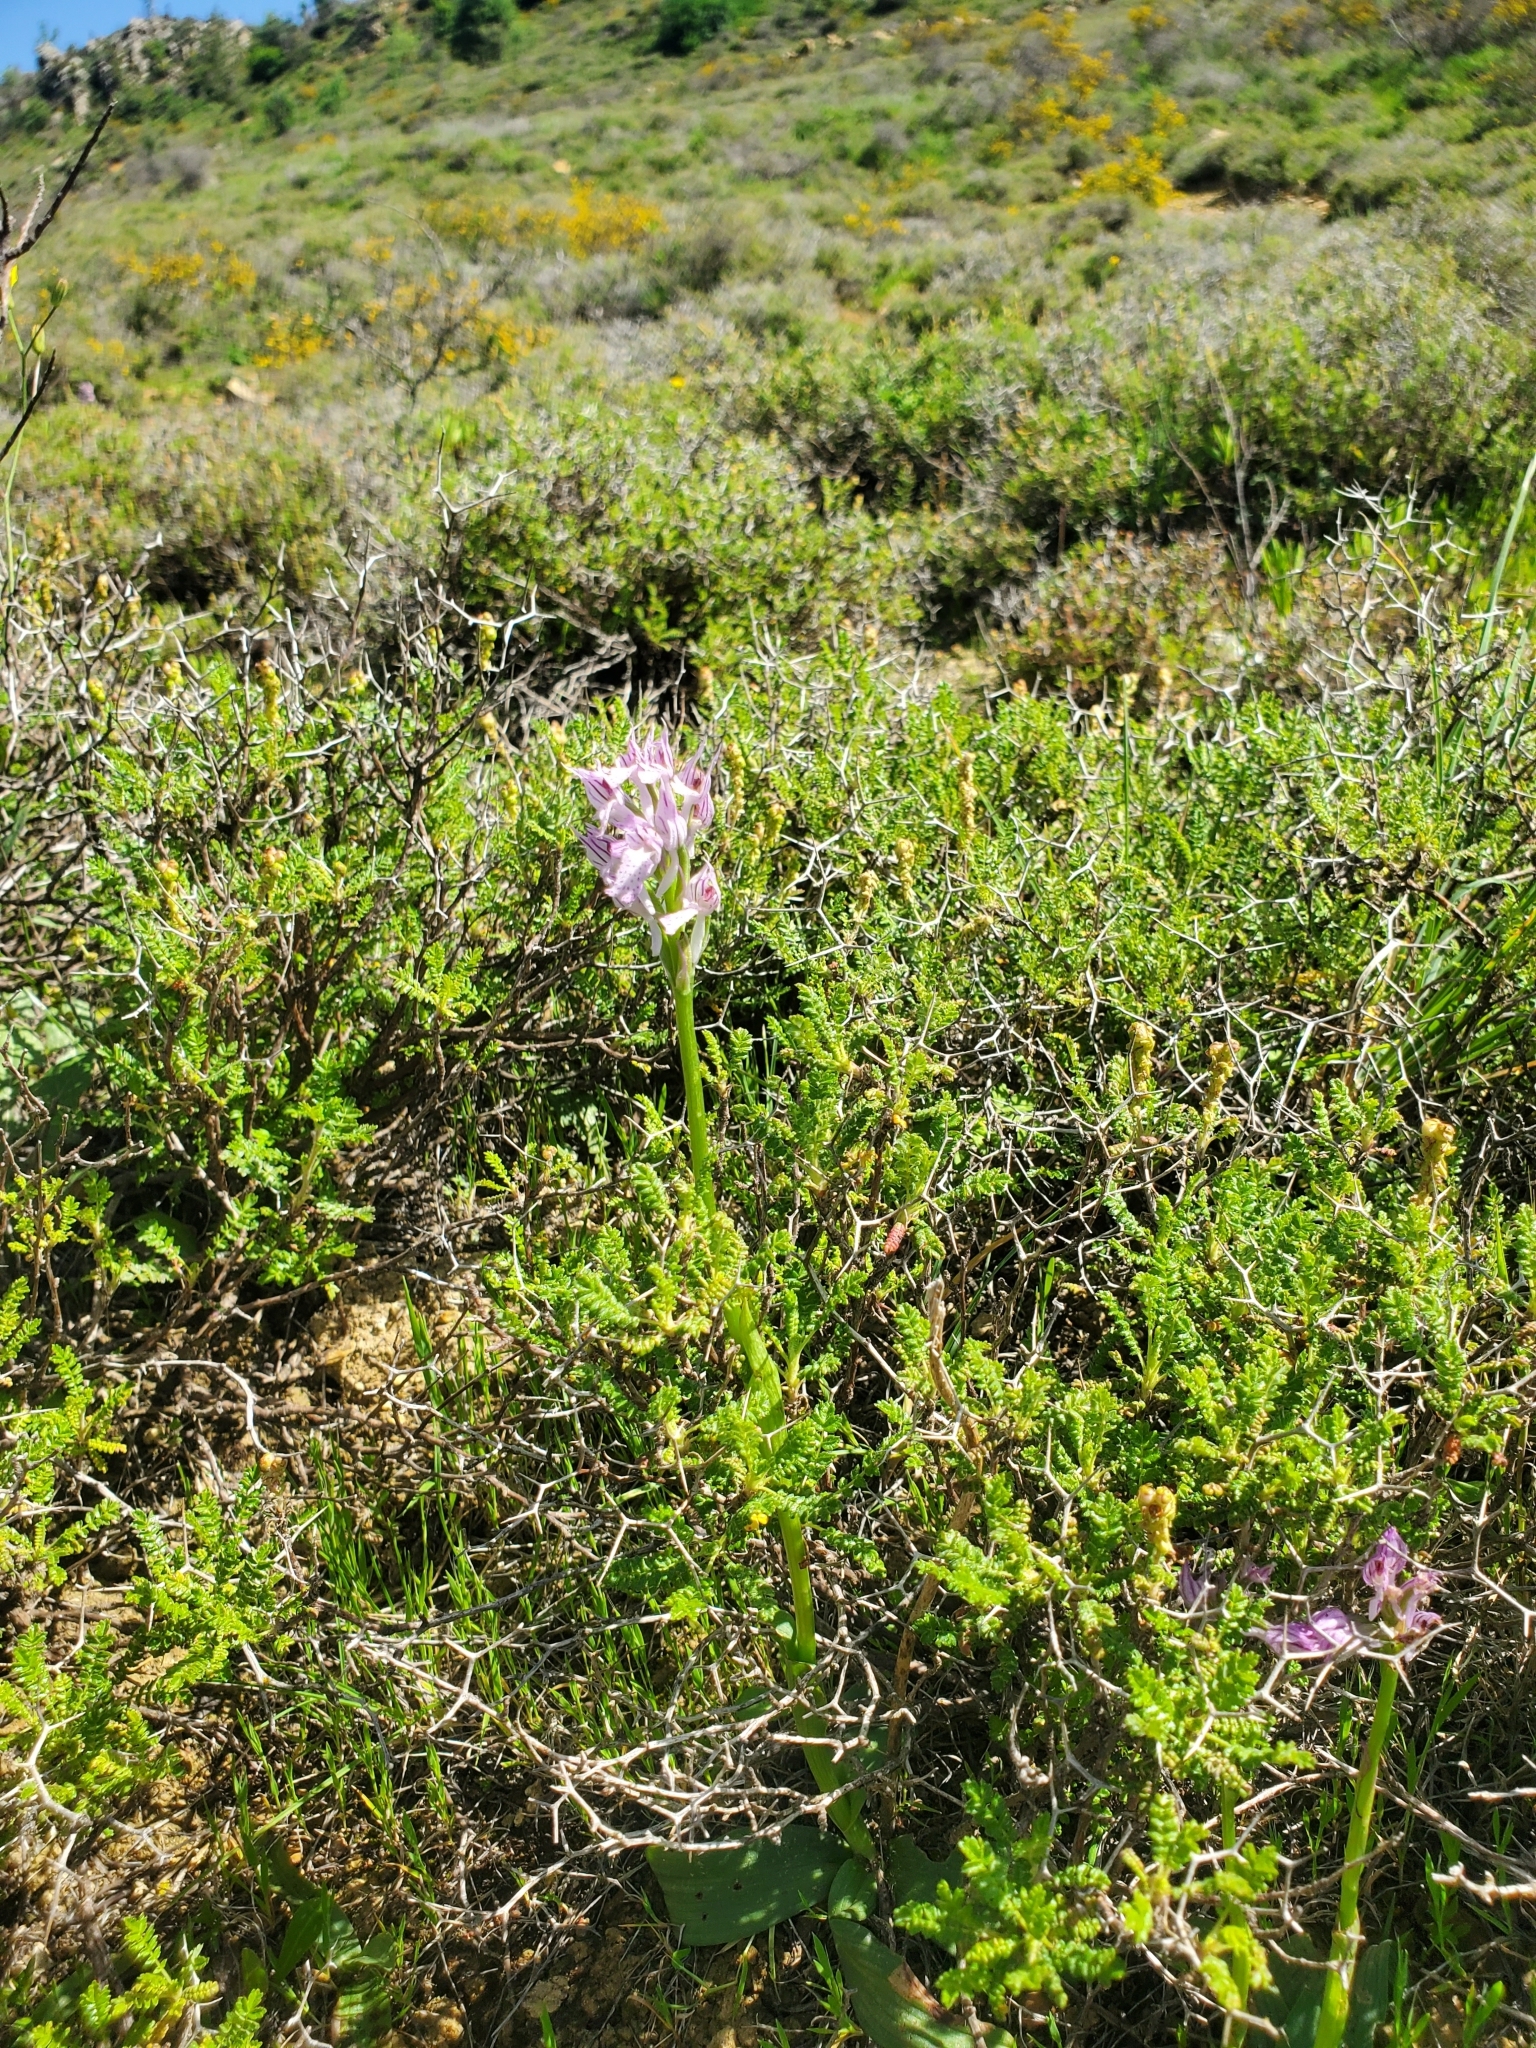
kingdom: Plantae
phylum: Tracheophyta
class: Liliopsida
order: Asparagales
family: Orchidaceae
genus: Neotinea
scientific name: Neotinea tridentata
